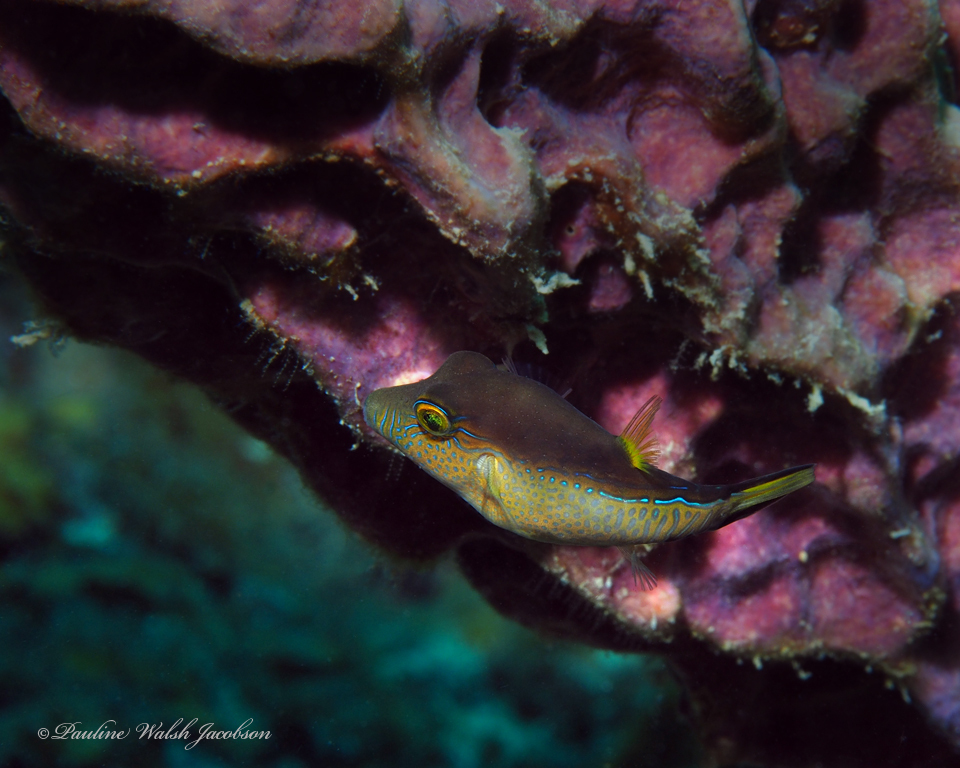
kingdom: Animalia
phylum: Chordata
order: Tetraodontiformes
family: Tetraodontidae
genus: Canthigaster
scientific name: Canthigaster rostrata
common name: Caribbean sharpnose-puffer
